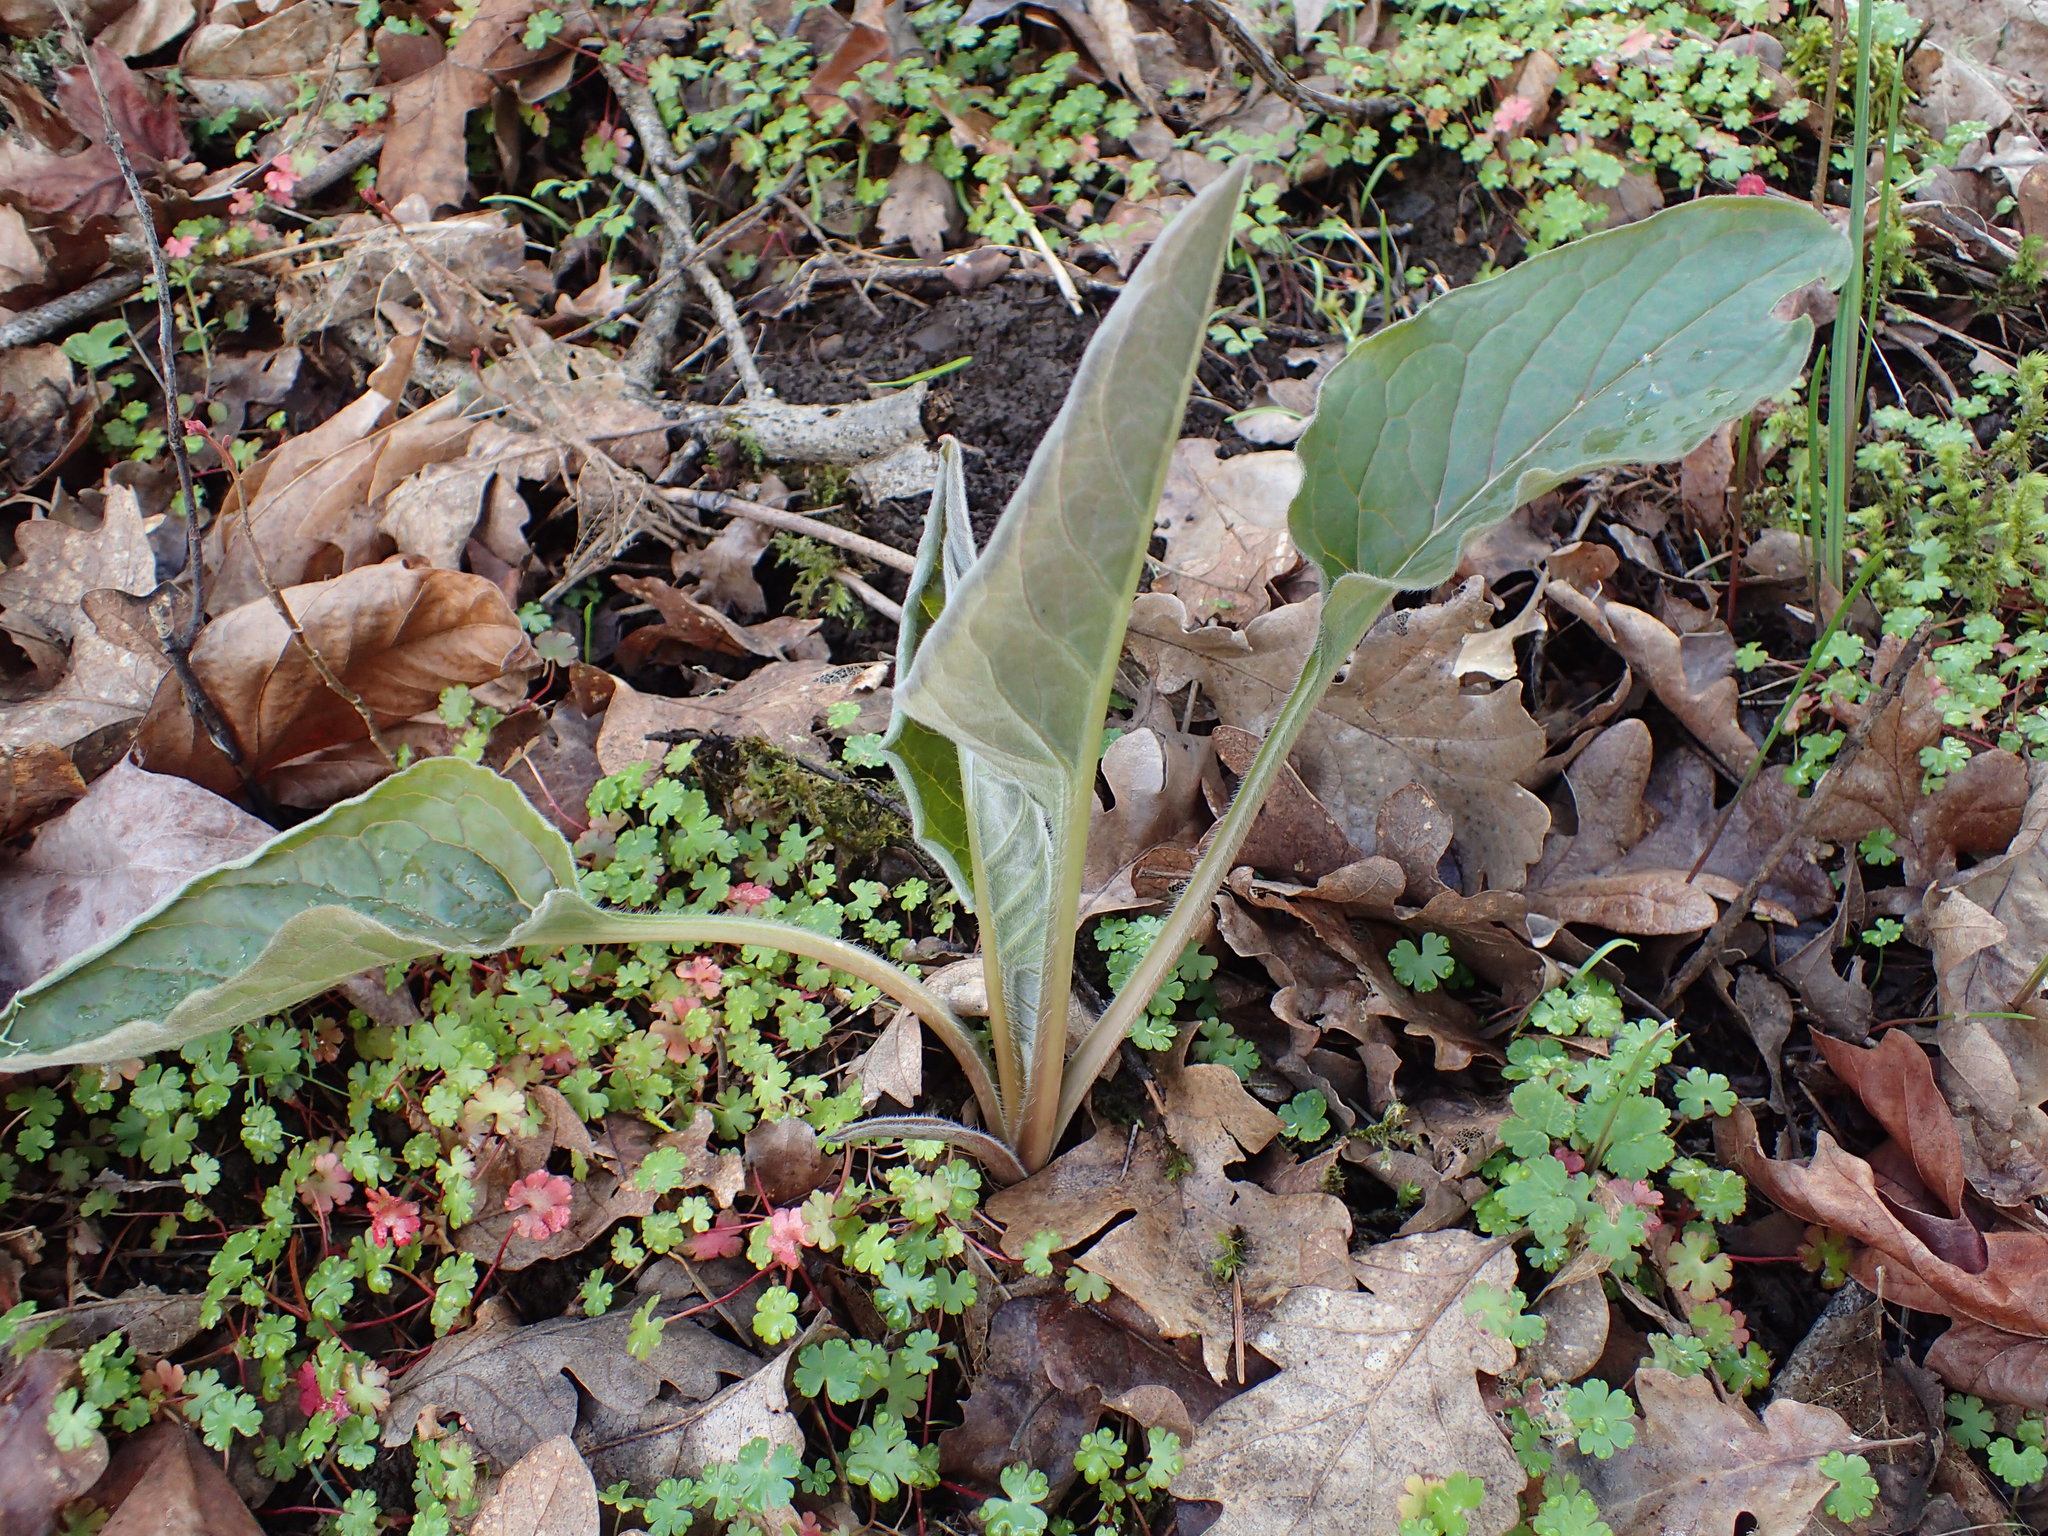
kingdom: Plantae
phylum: Tracheophyta
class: Magnoliopsida
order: Boraginales
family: Boraginaceae
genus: Adelinia
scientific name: Adelinia grande
